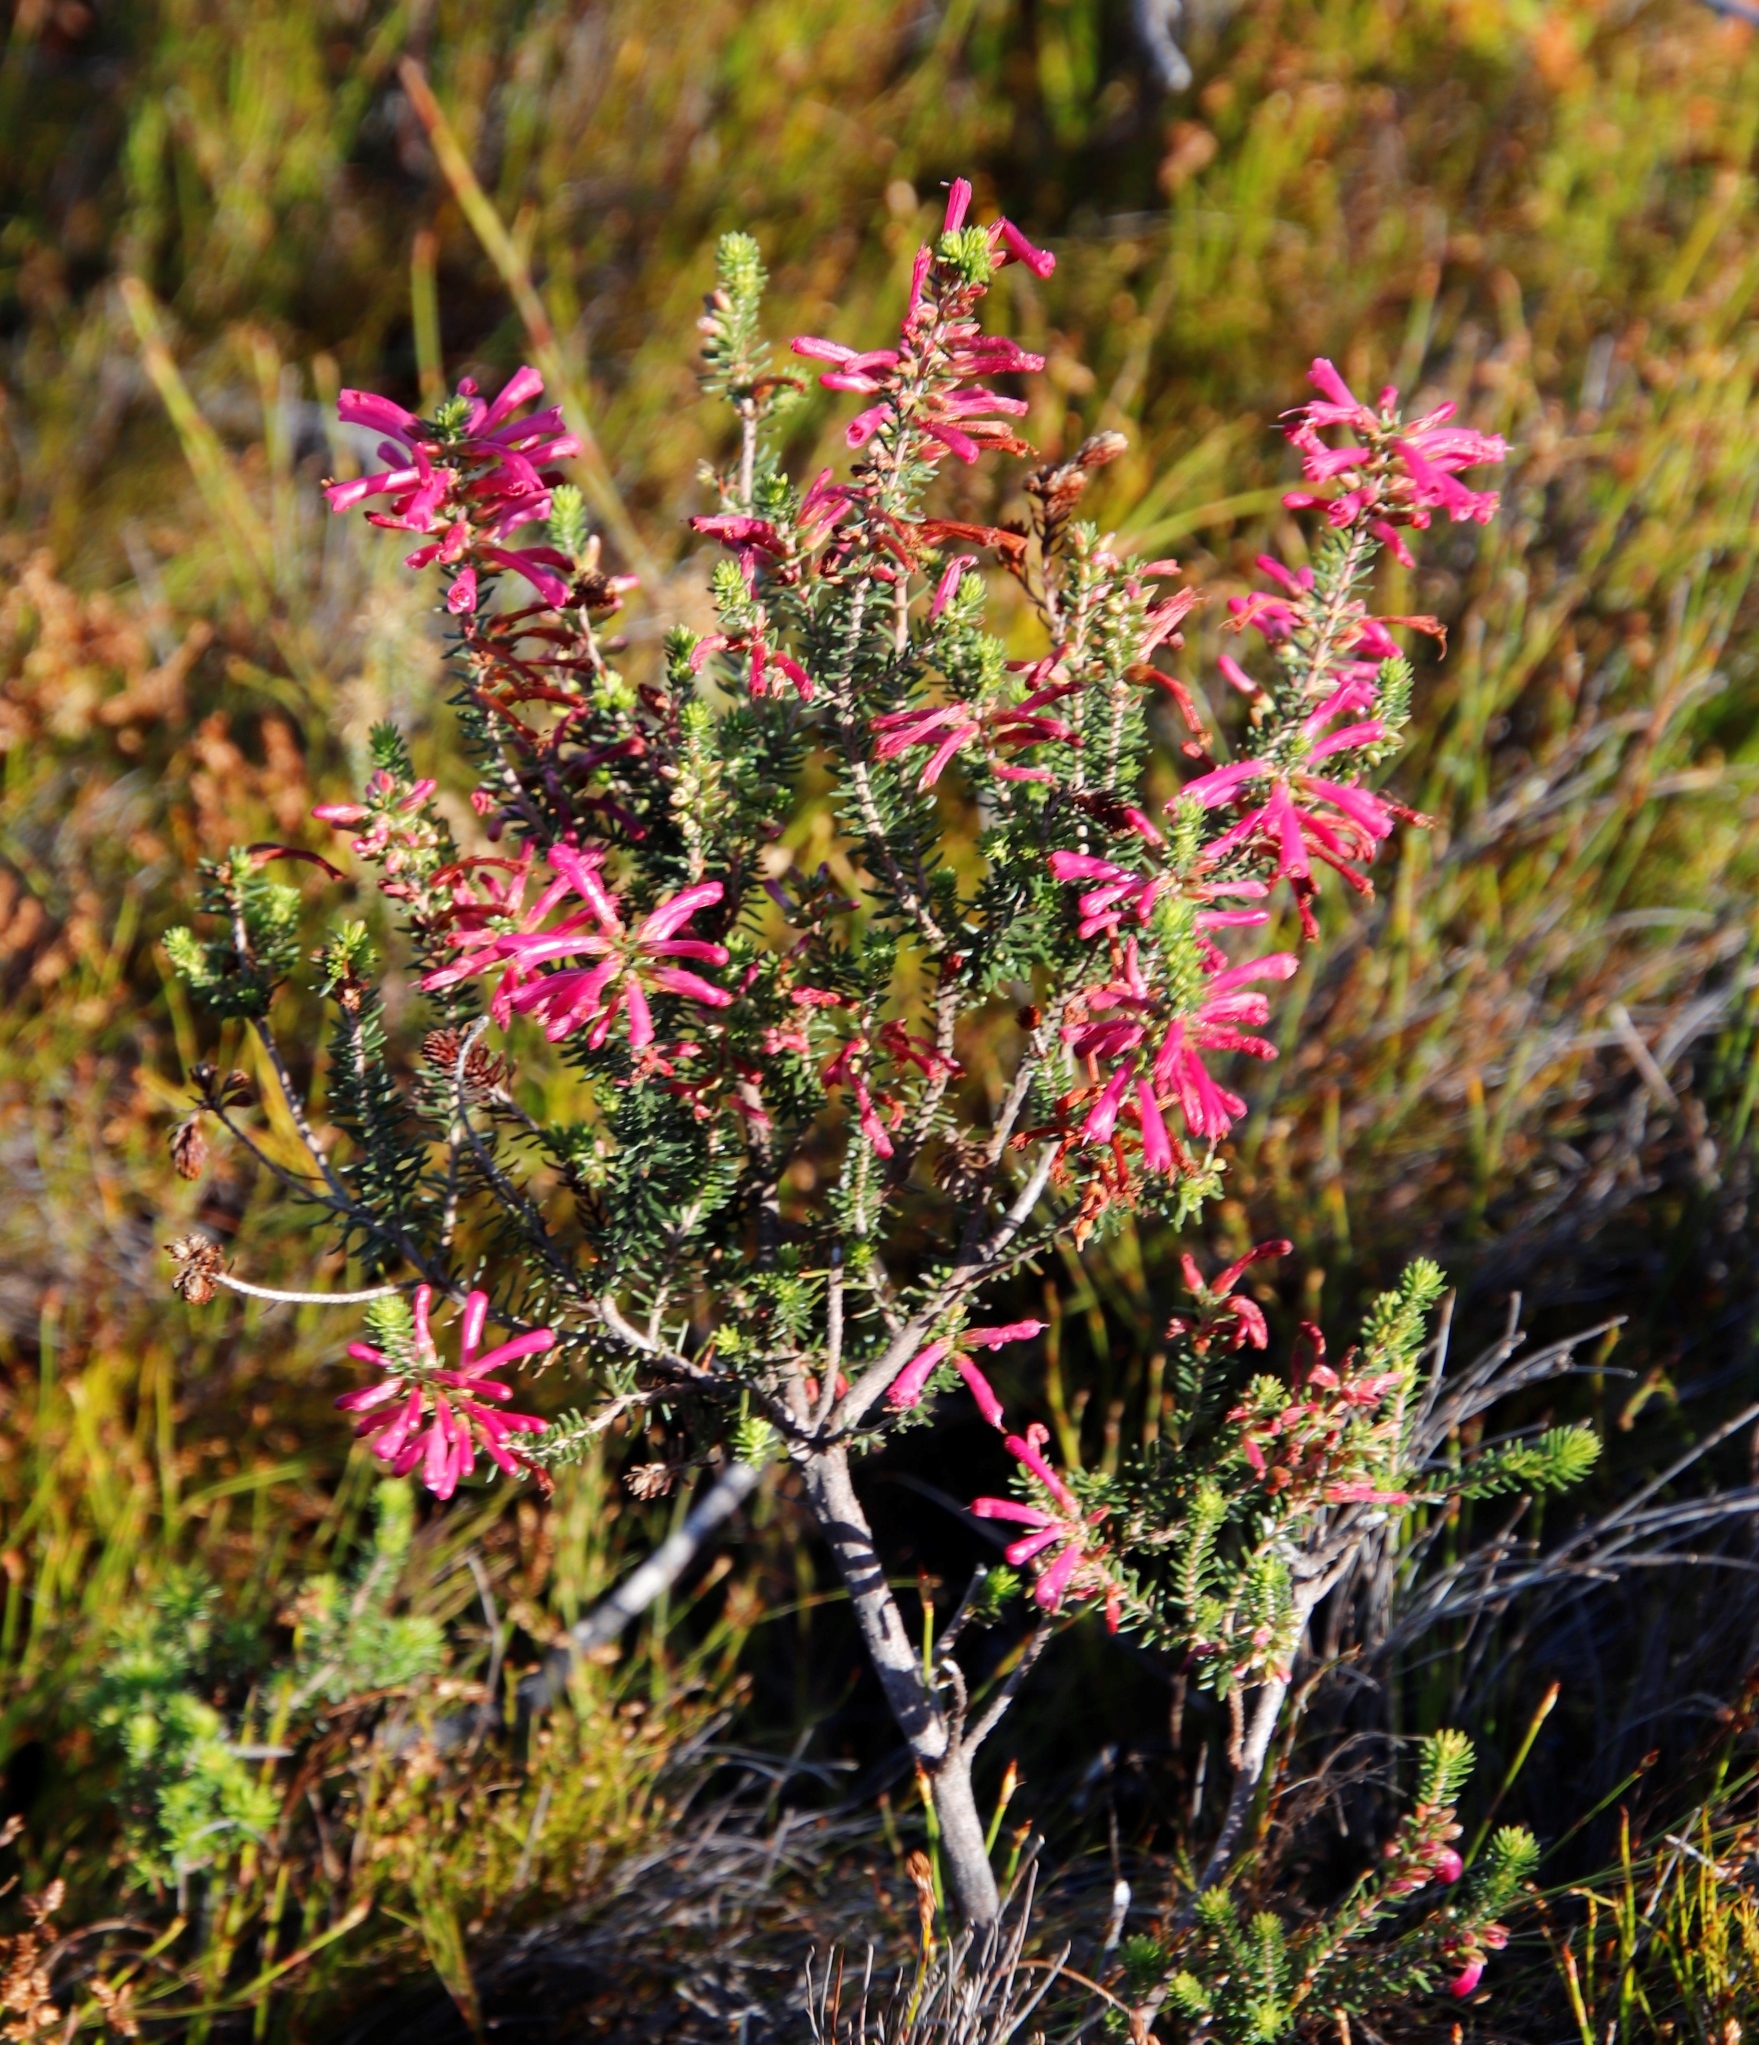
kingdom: Plantae
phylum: Tracheophyta
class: Magnoliopsida
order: Ericales
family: Ericaceae
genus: Erica
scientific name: Erica abietina
